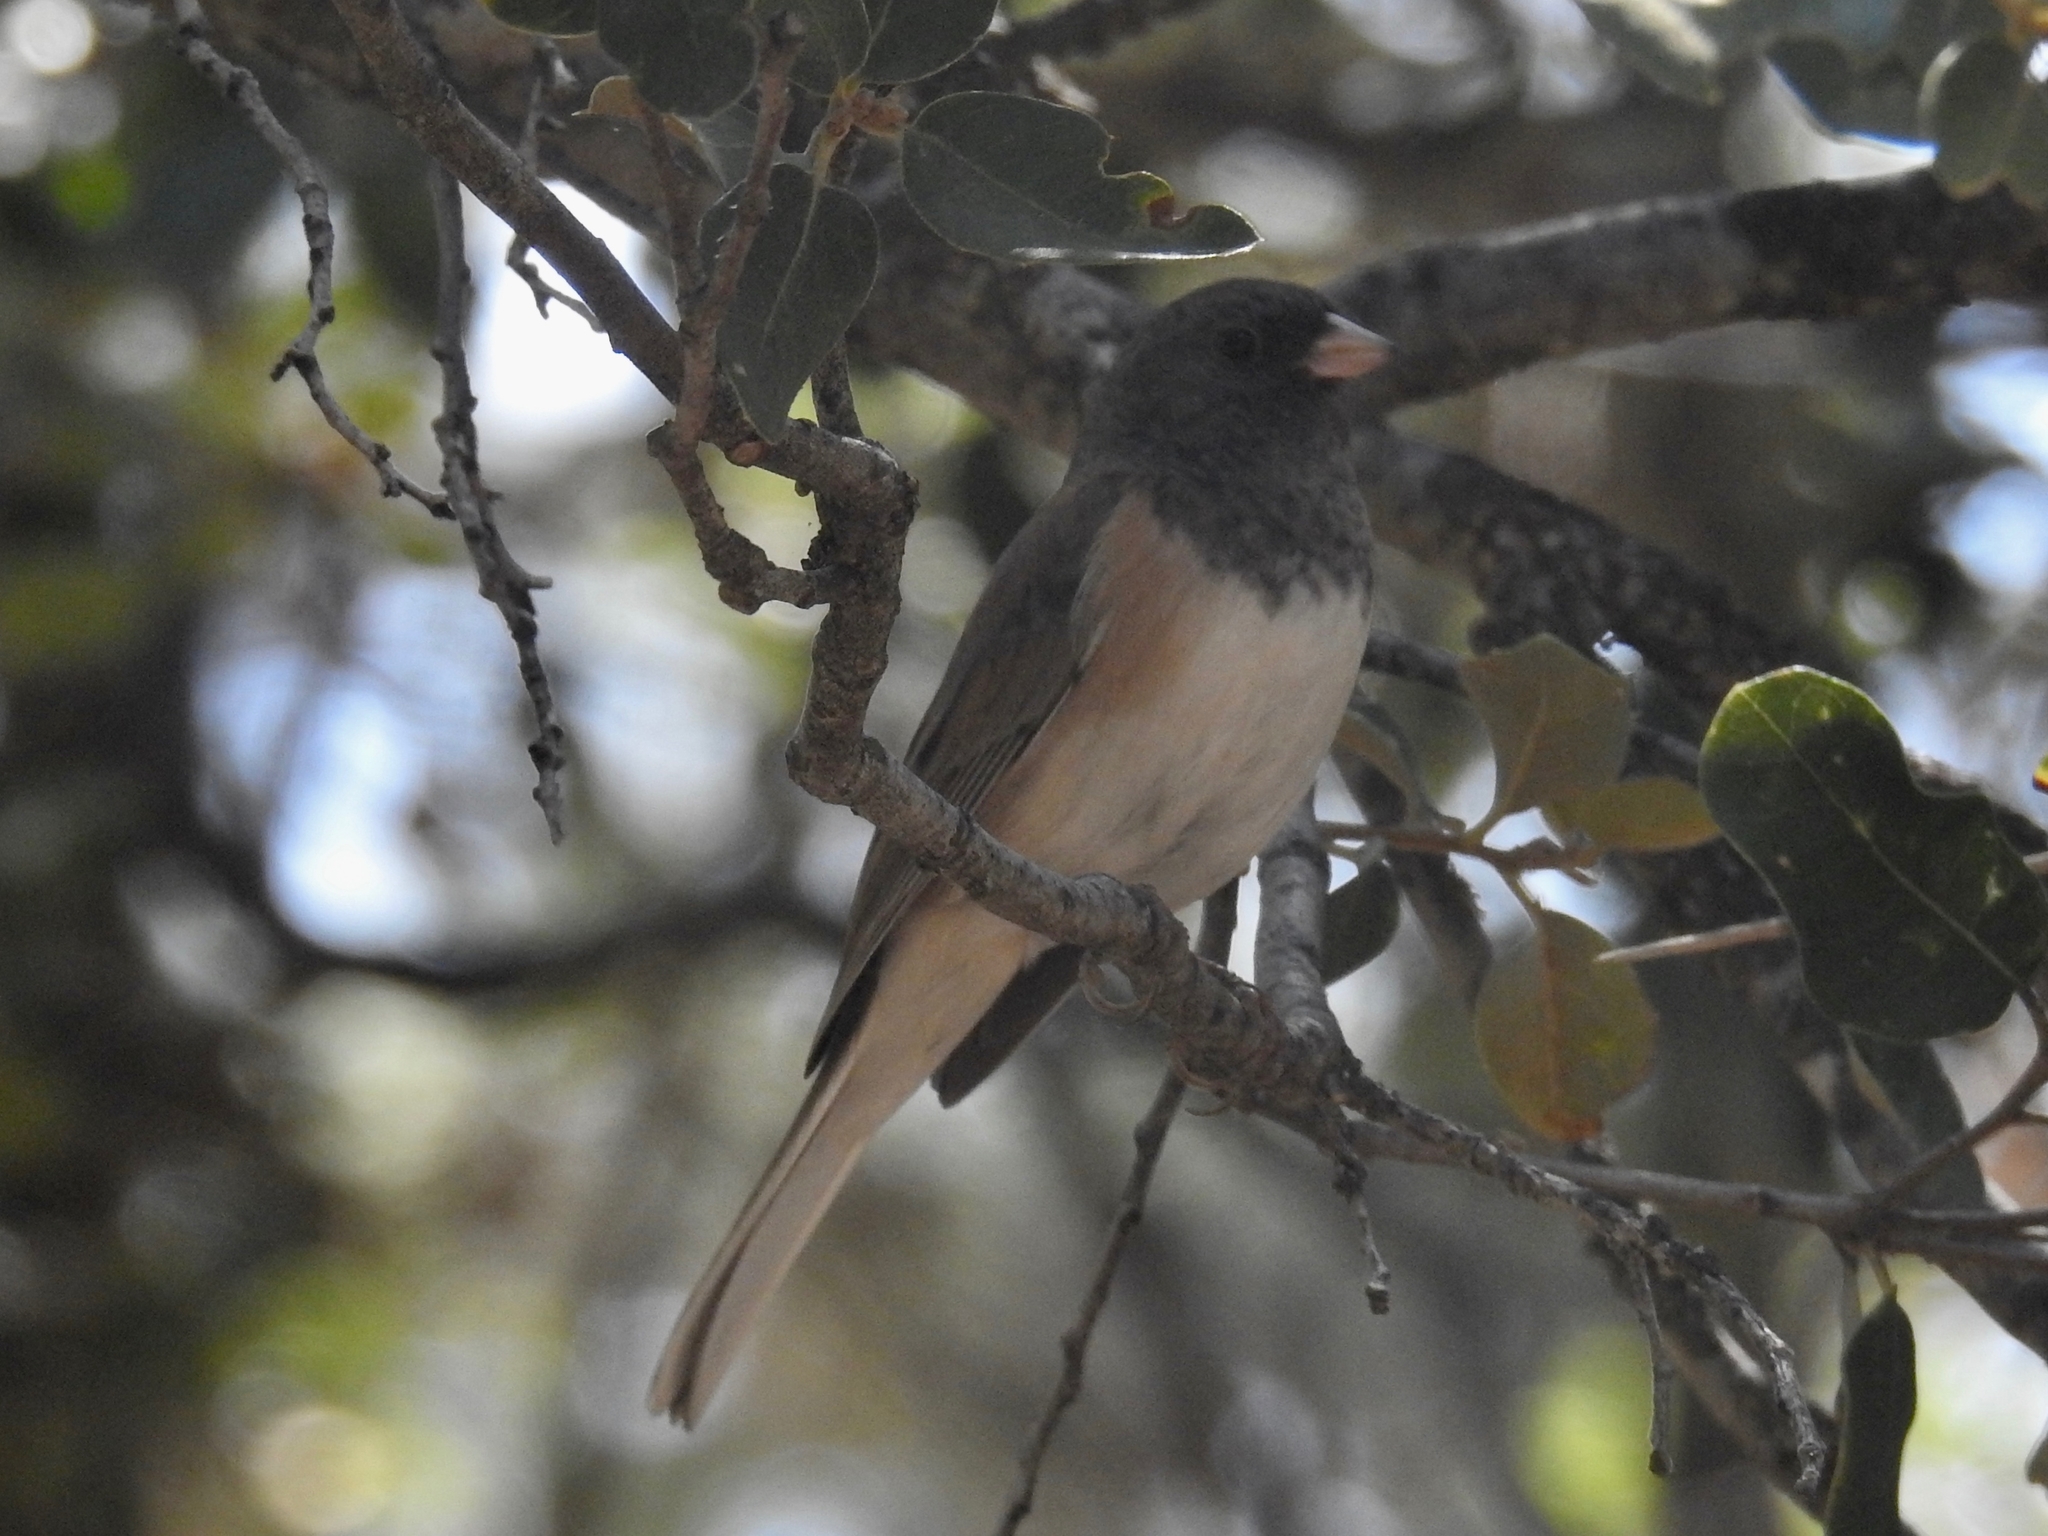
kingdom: Animalia
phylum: Chordata
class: Aves
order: Passeriformes
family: Passerellidae
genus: Junco
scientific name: Junco hyemalis
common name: Dark-eyed junco
